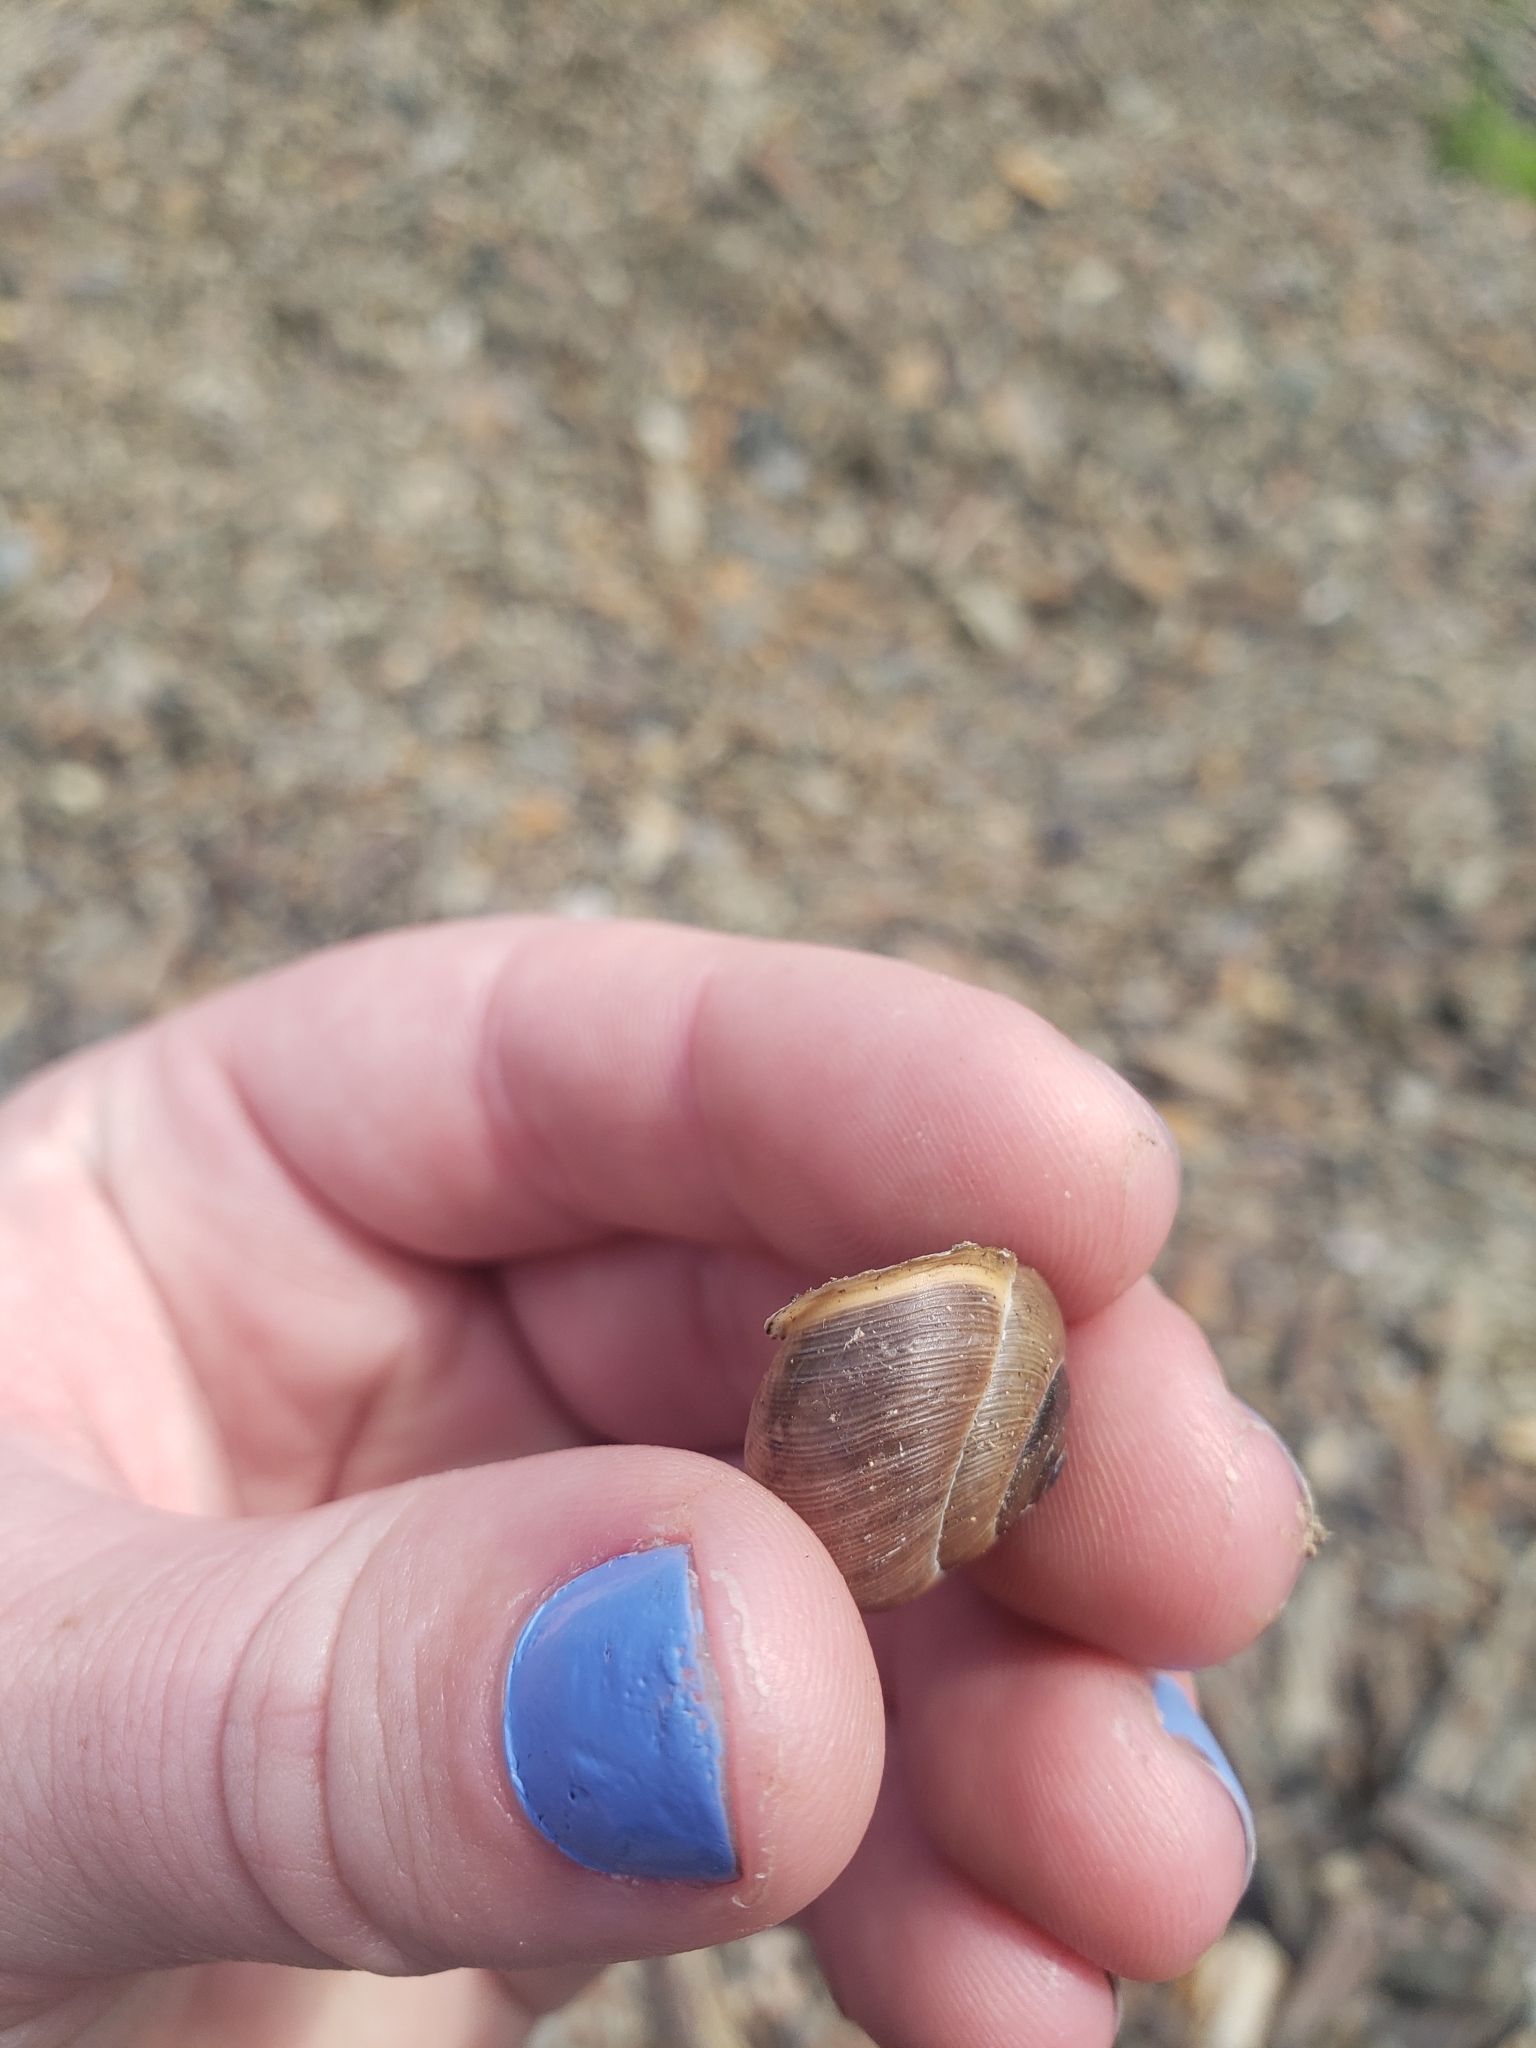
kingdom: Animalia
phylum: Mollusca
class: Gastropoda
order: Stylommatophora
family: Polygyridae
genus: Mesodon
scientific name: Mesodon thyroidus
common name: White-lip globe
